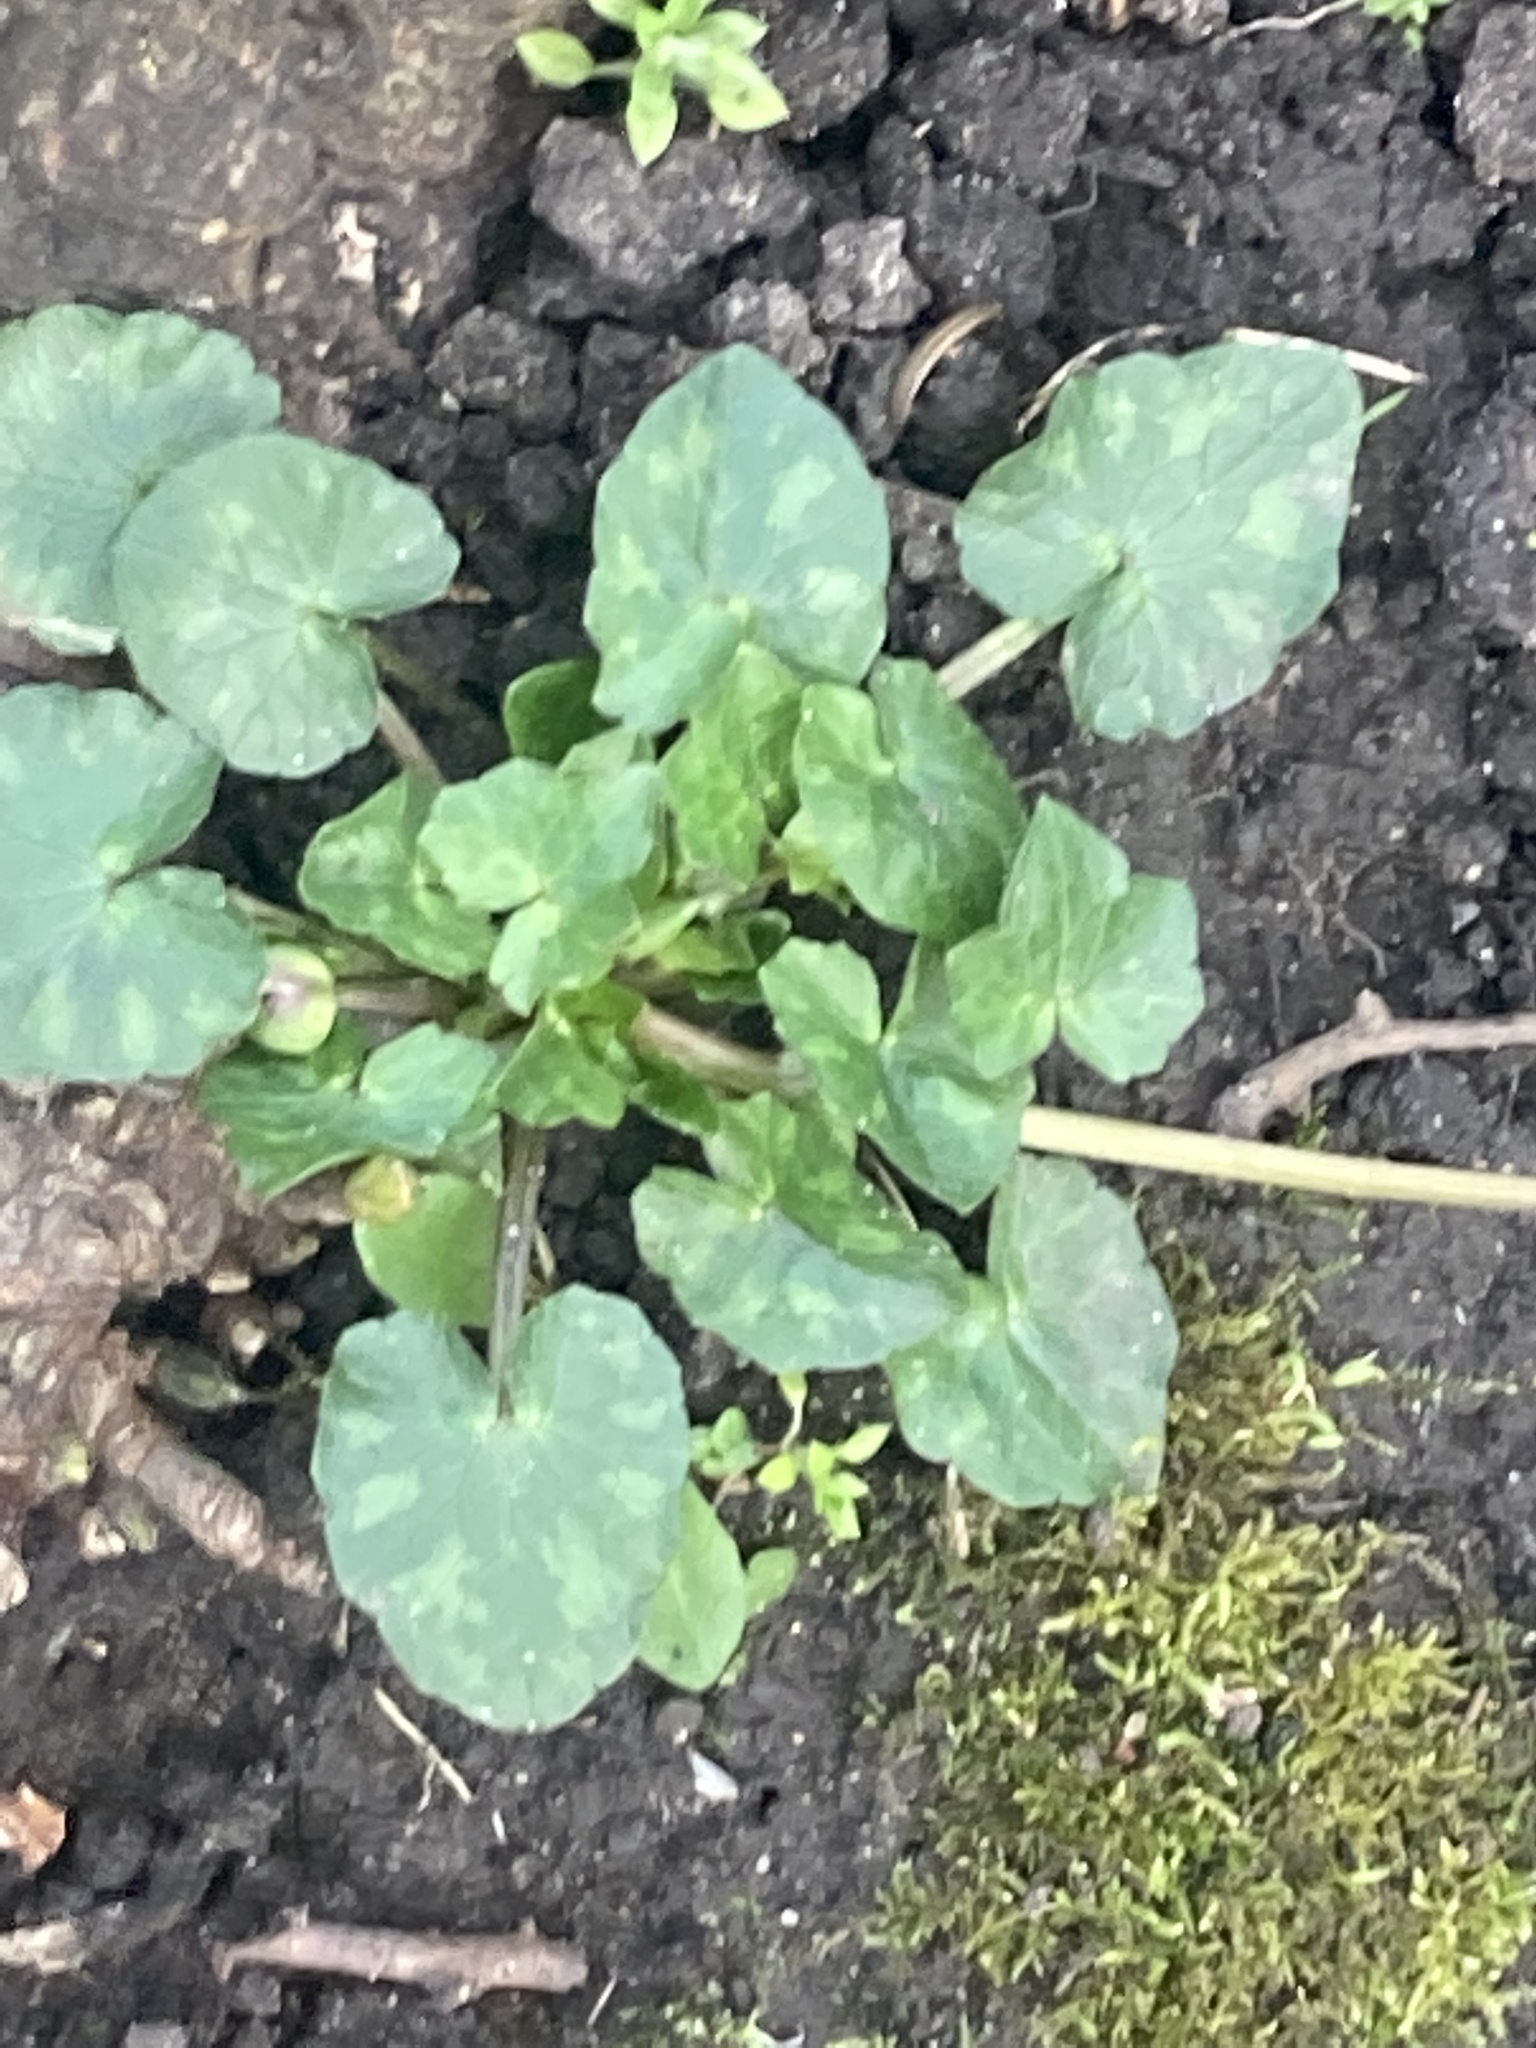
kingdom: Plantae
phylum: Tracheophyta
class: Magnoliopsida
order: Ranunculales
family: Ranunculaceae
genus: Ficaria
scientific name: Ficaria verna
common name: Lesser celandine
